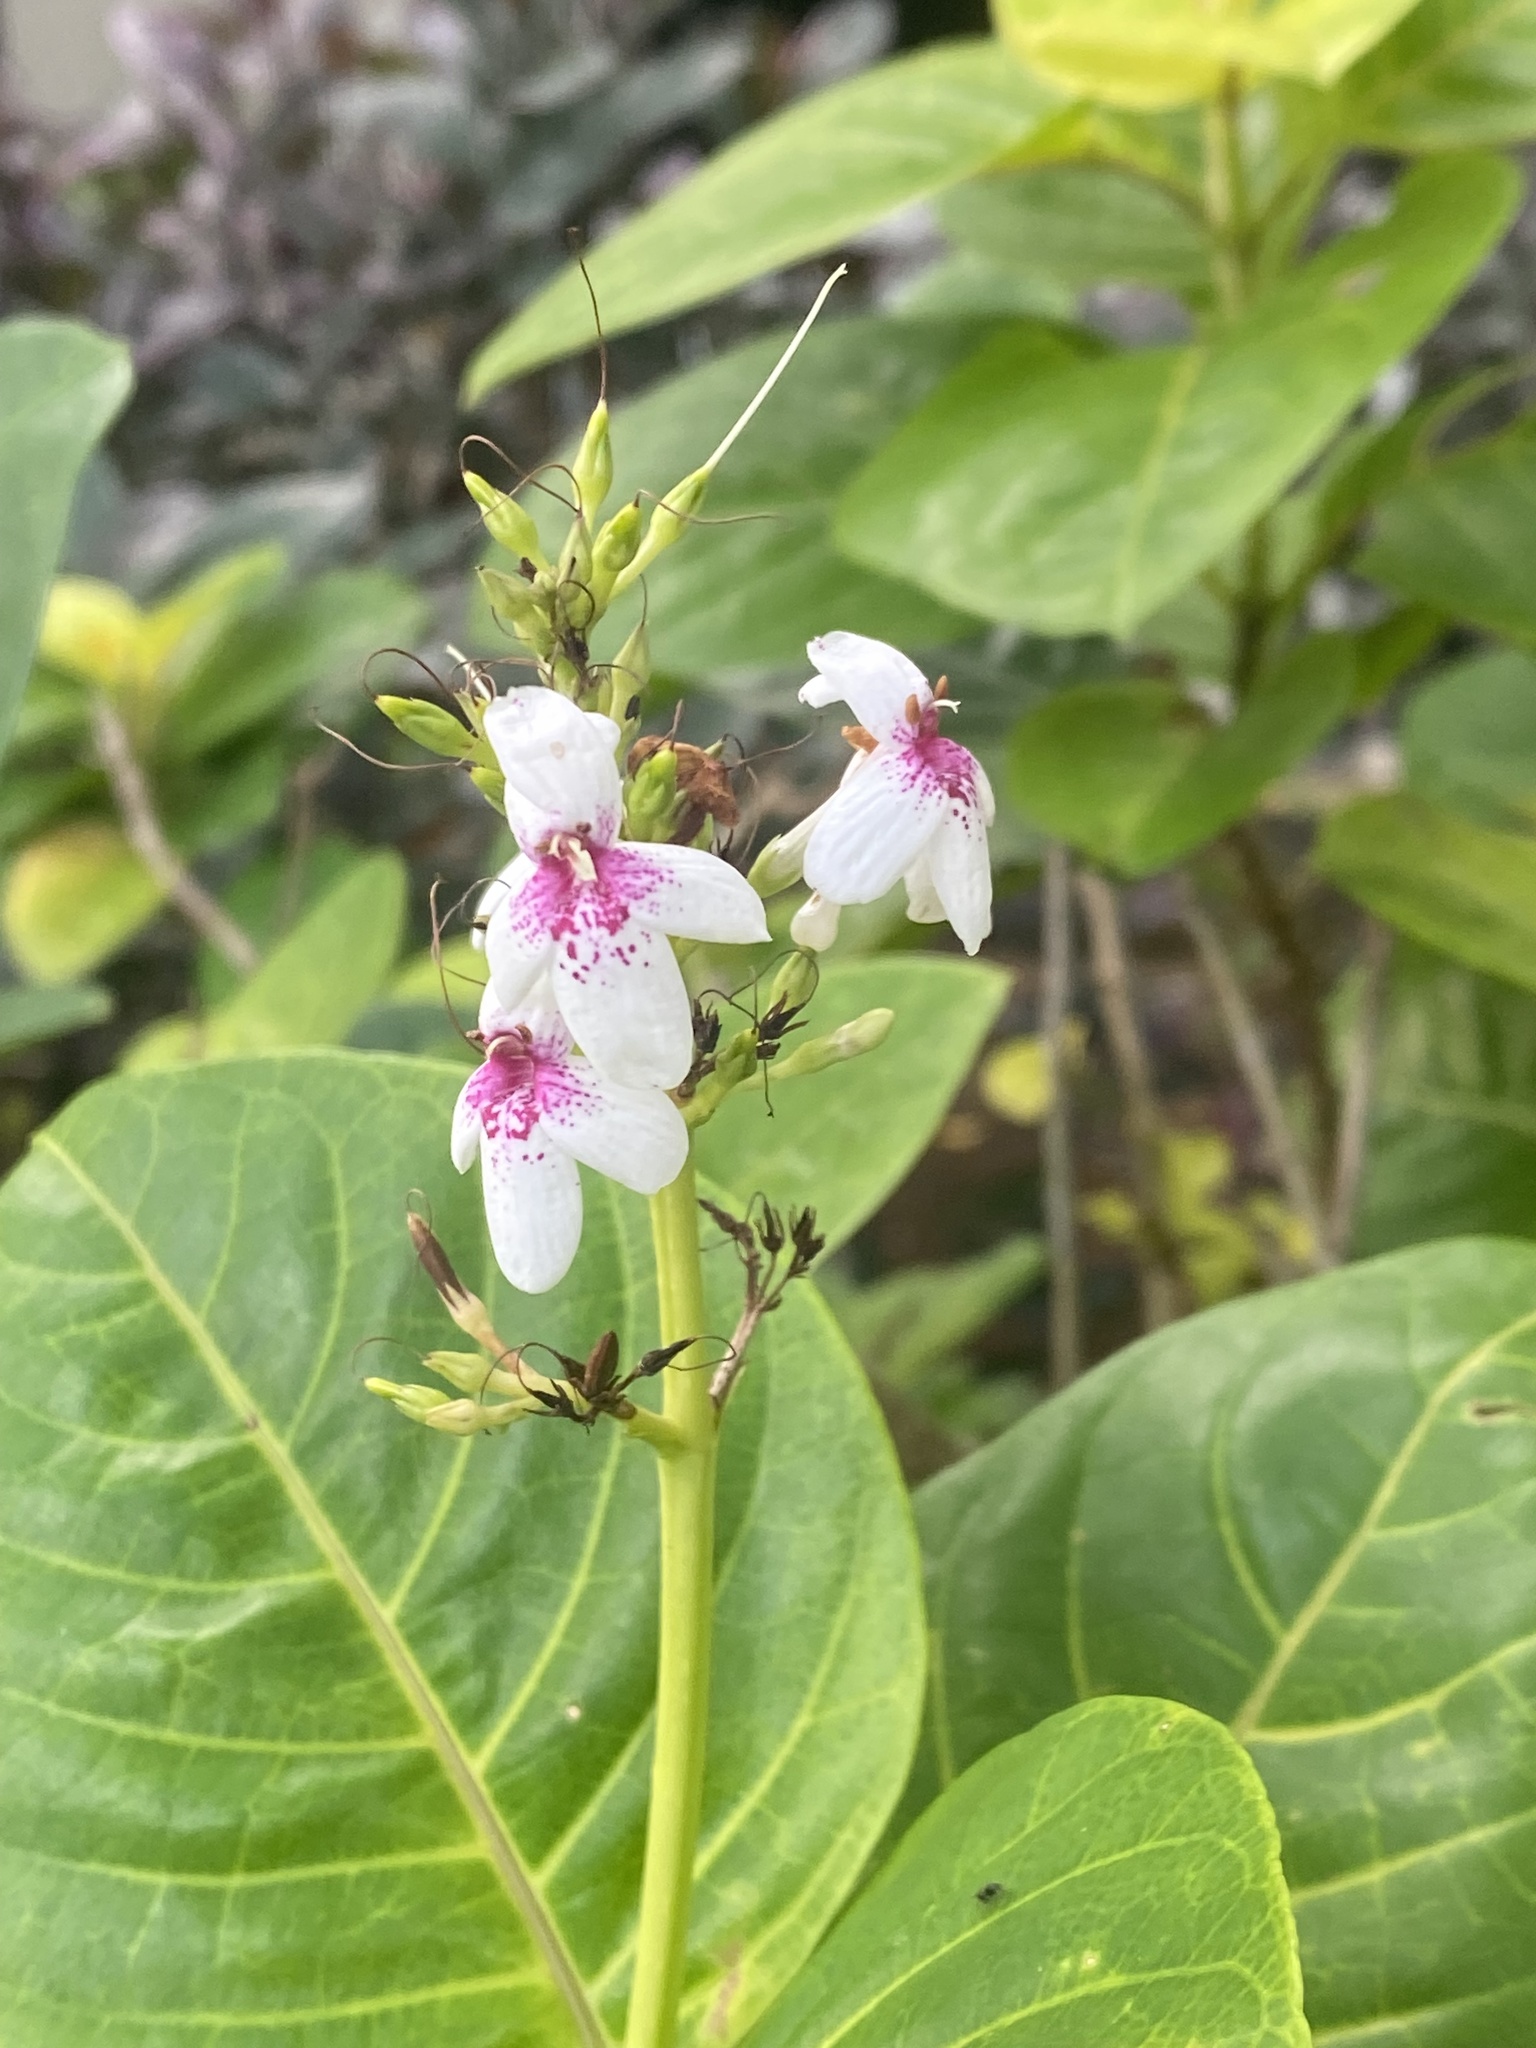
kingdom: Plantae
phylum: Tracheophyta
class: Magnoliopsida
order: Lamiales
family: Acanthaceae
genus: Pseuderanthemum
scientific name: Pseuderanthemum maculatum
